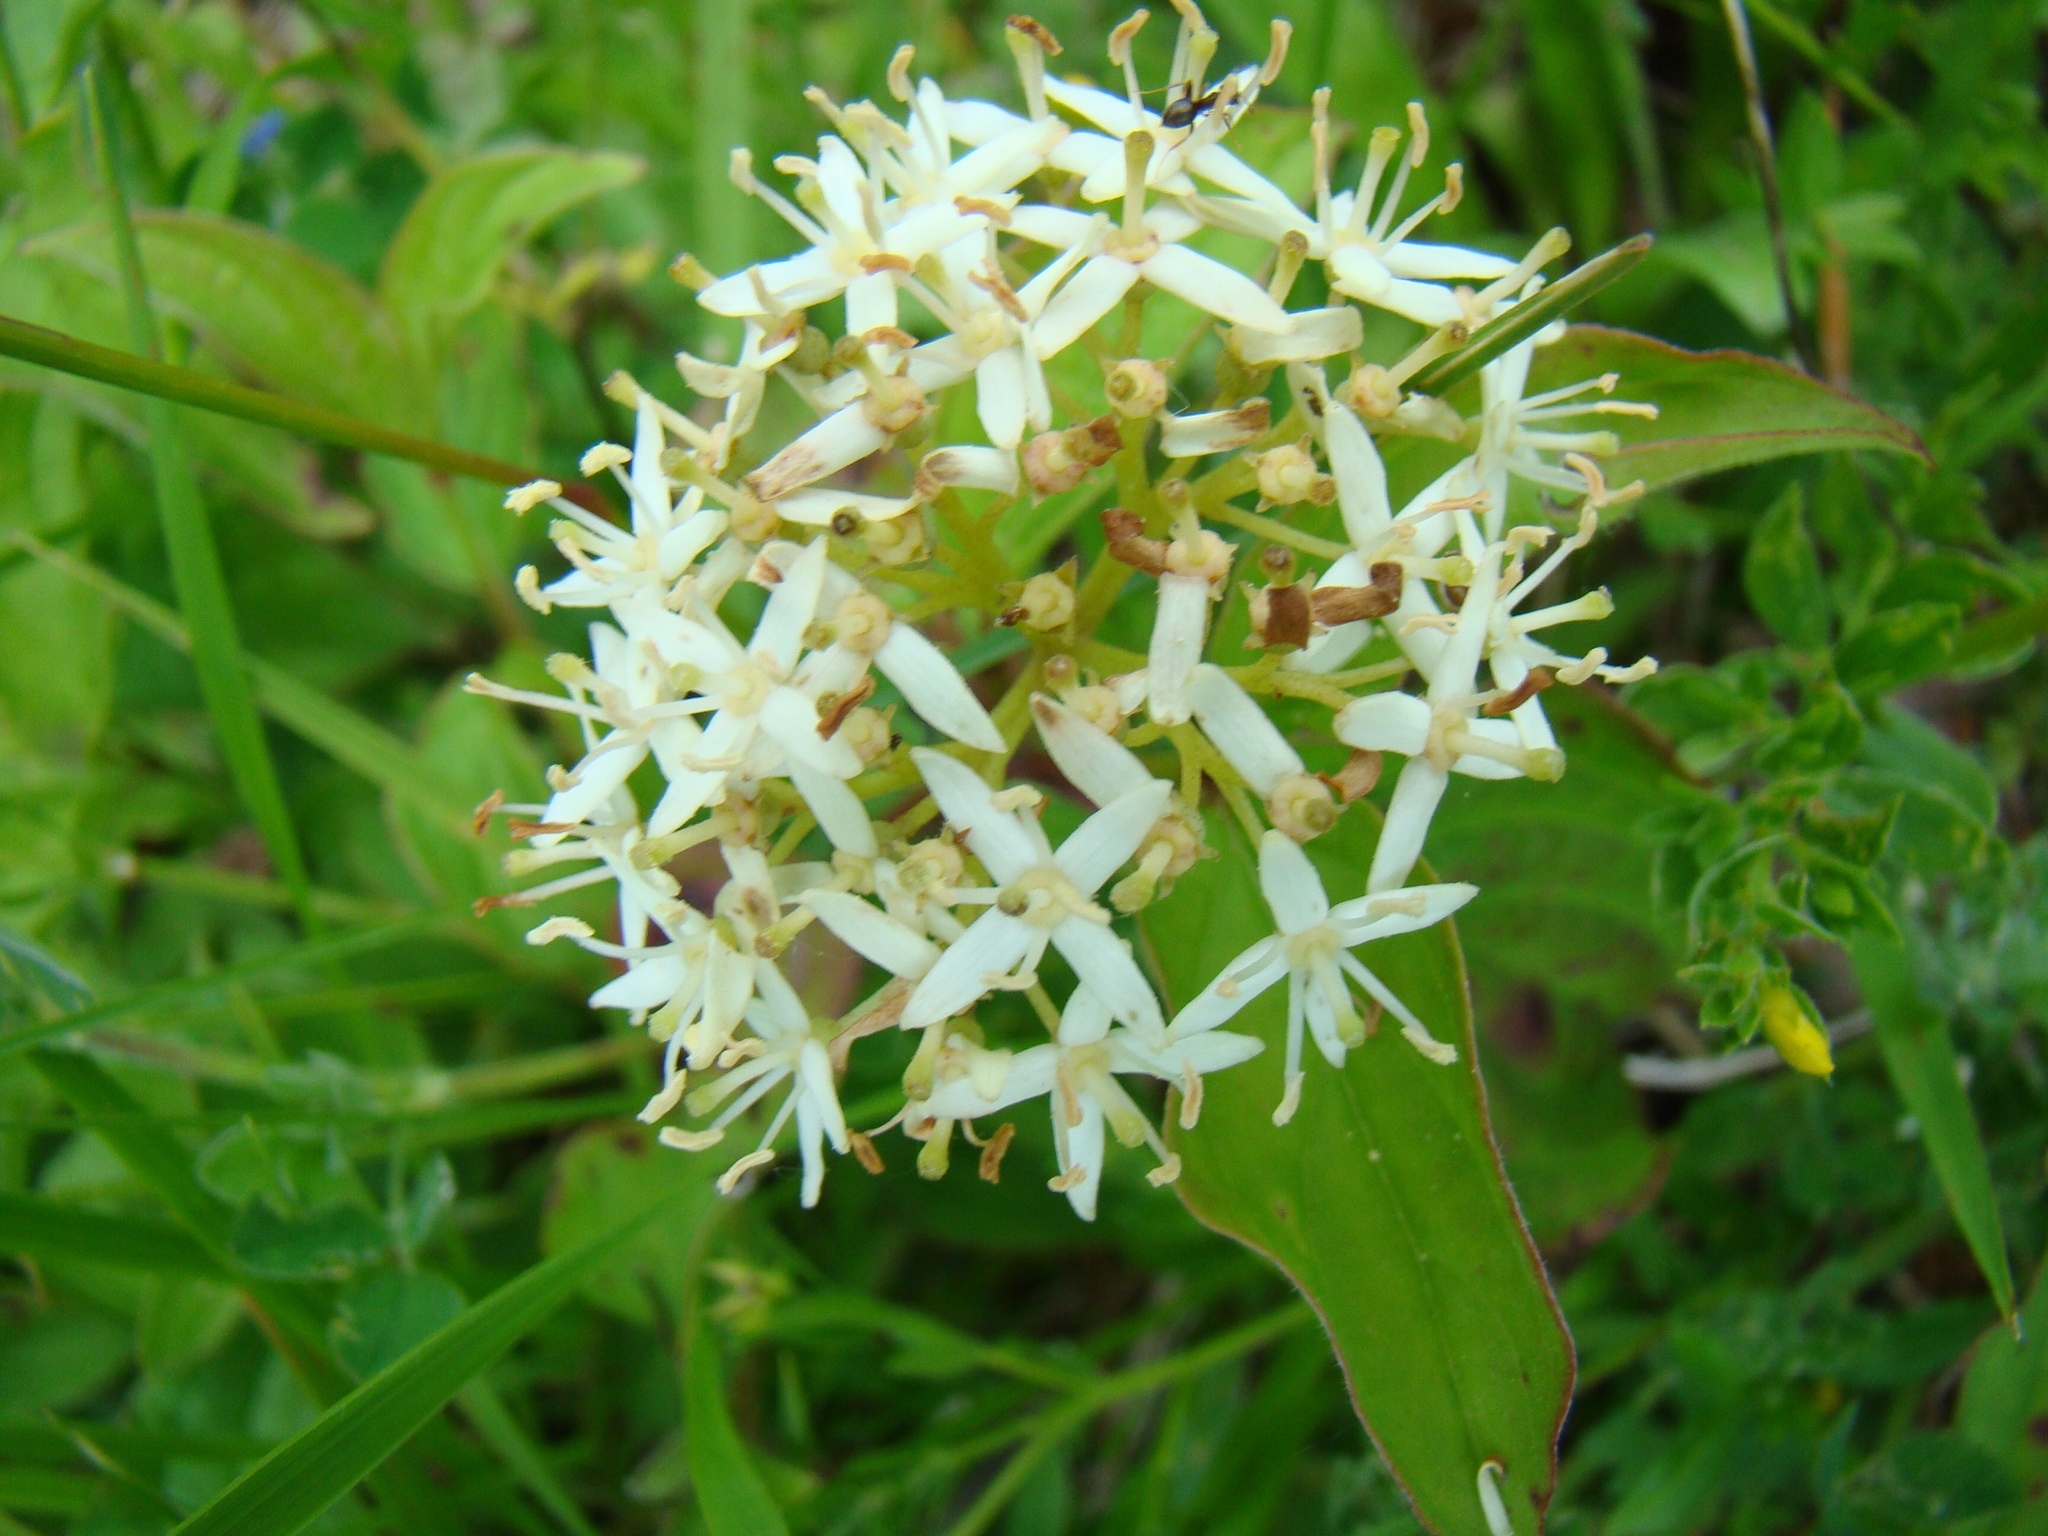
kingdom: Plantae
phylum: Tracheophyta
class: Magnoliopsida
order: Cornales
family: Cornaceae
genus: Cornus
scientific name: Cornus sanguinea
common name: Dogwood
